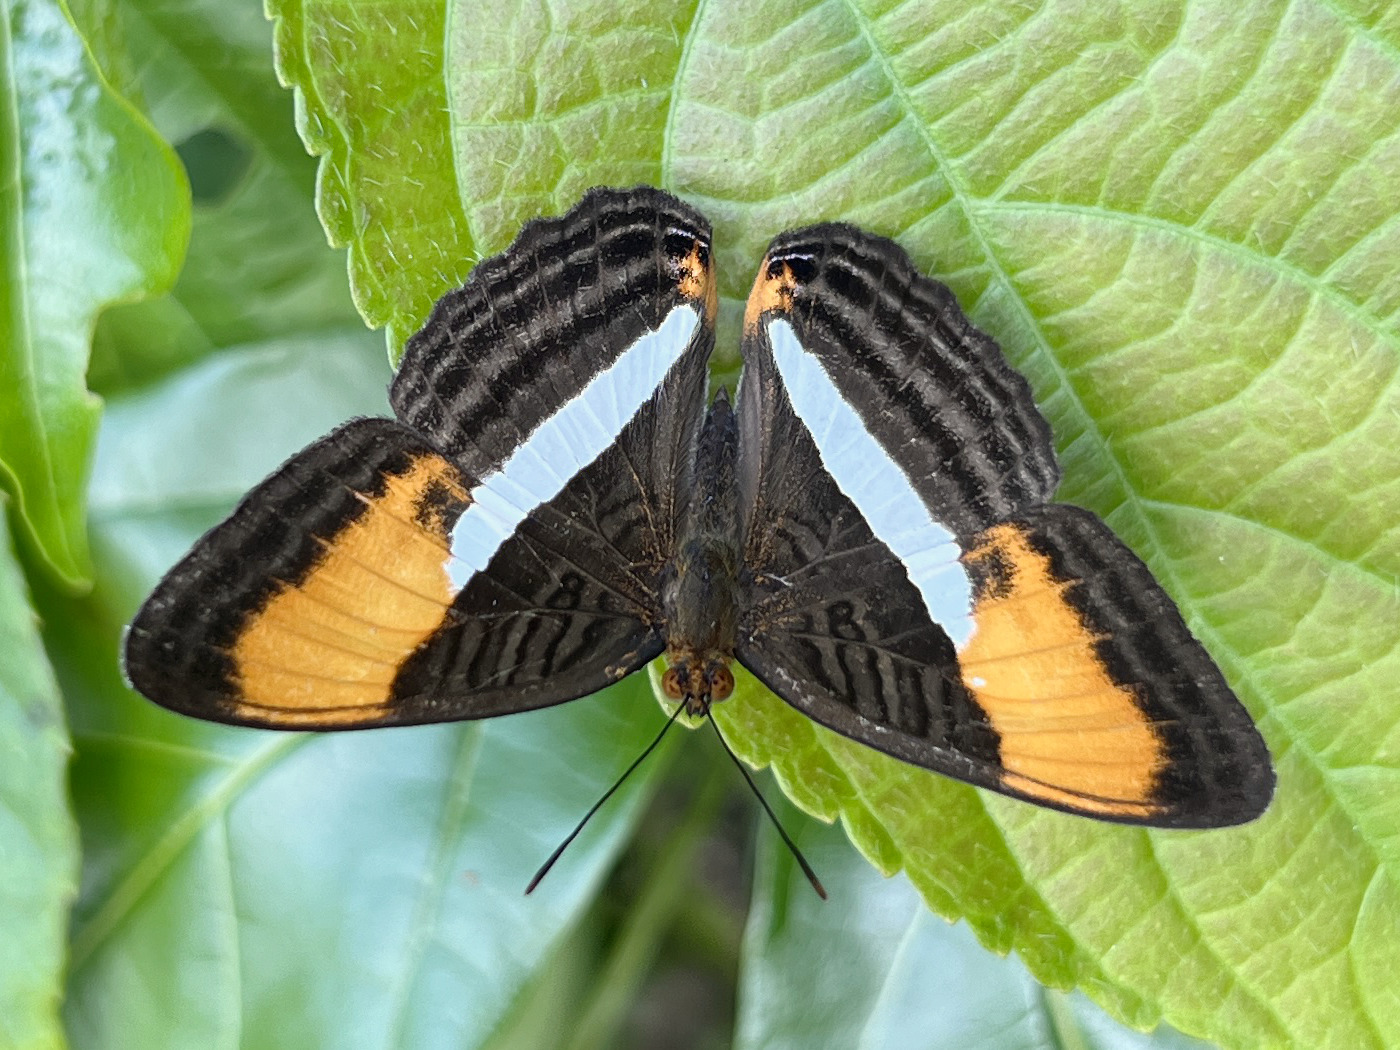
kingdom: Animalia
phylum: Arthropoda
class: Insecta
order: Lepidoptera
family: Nymphalidae
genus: Limenitis
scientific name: Limenitis cytherea
